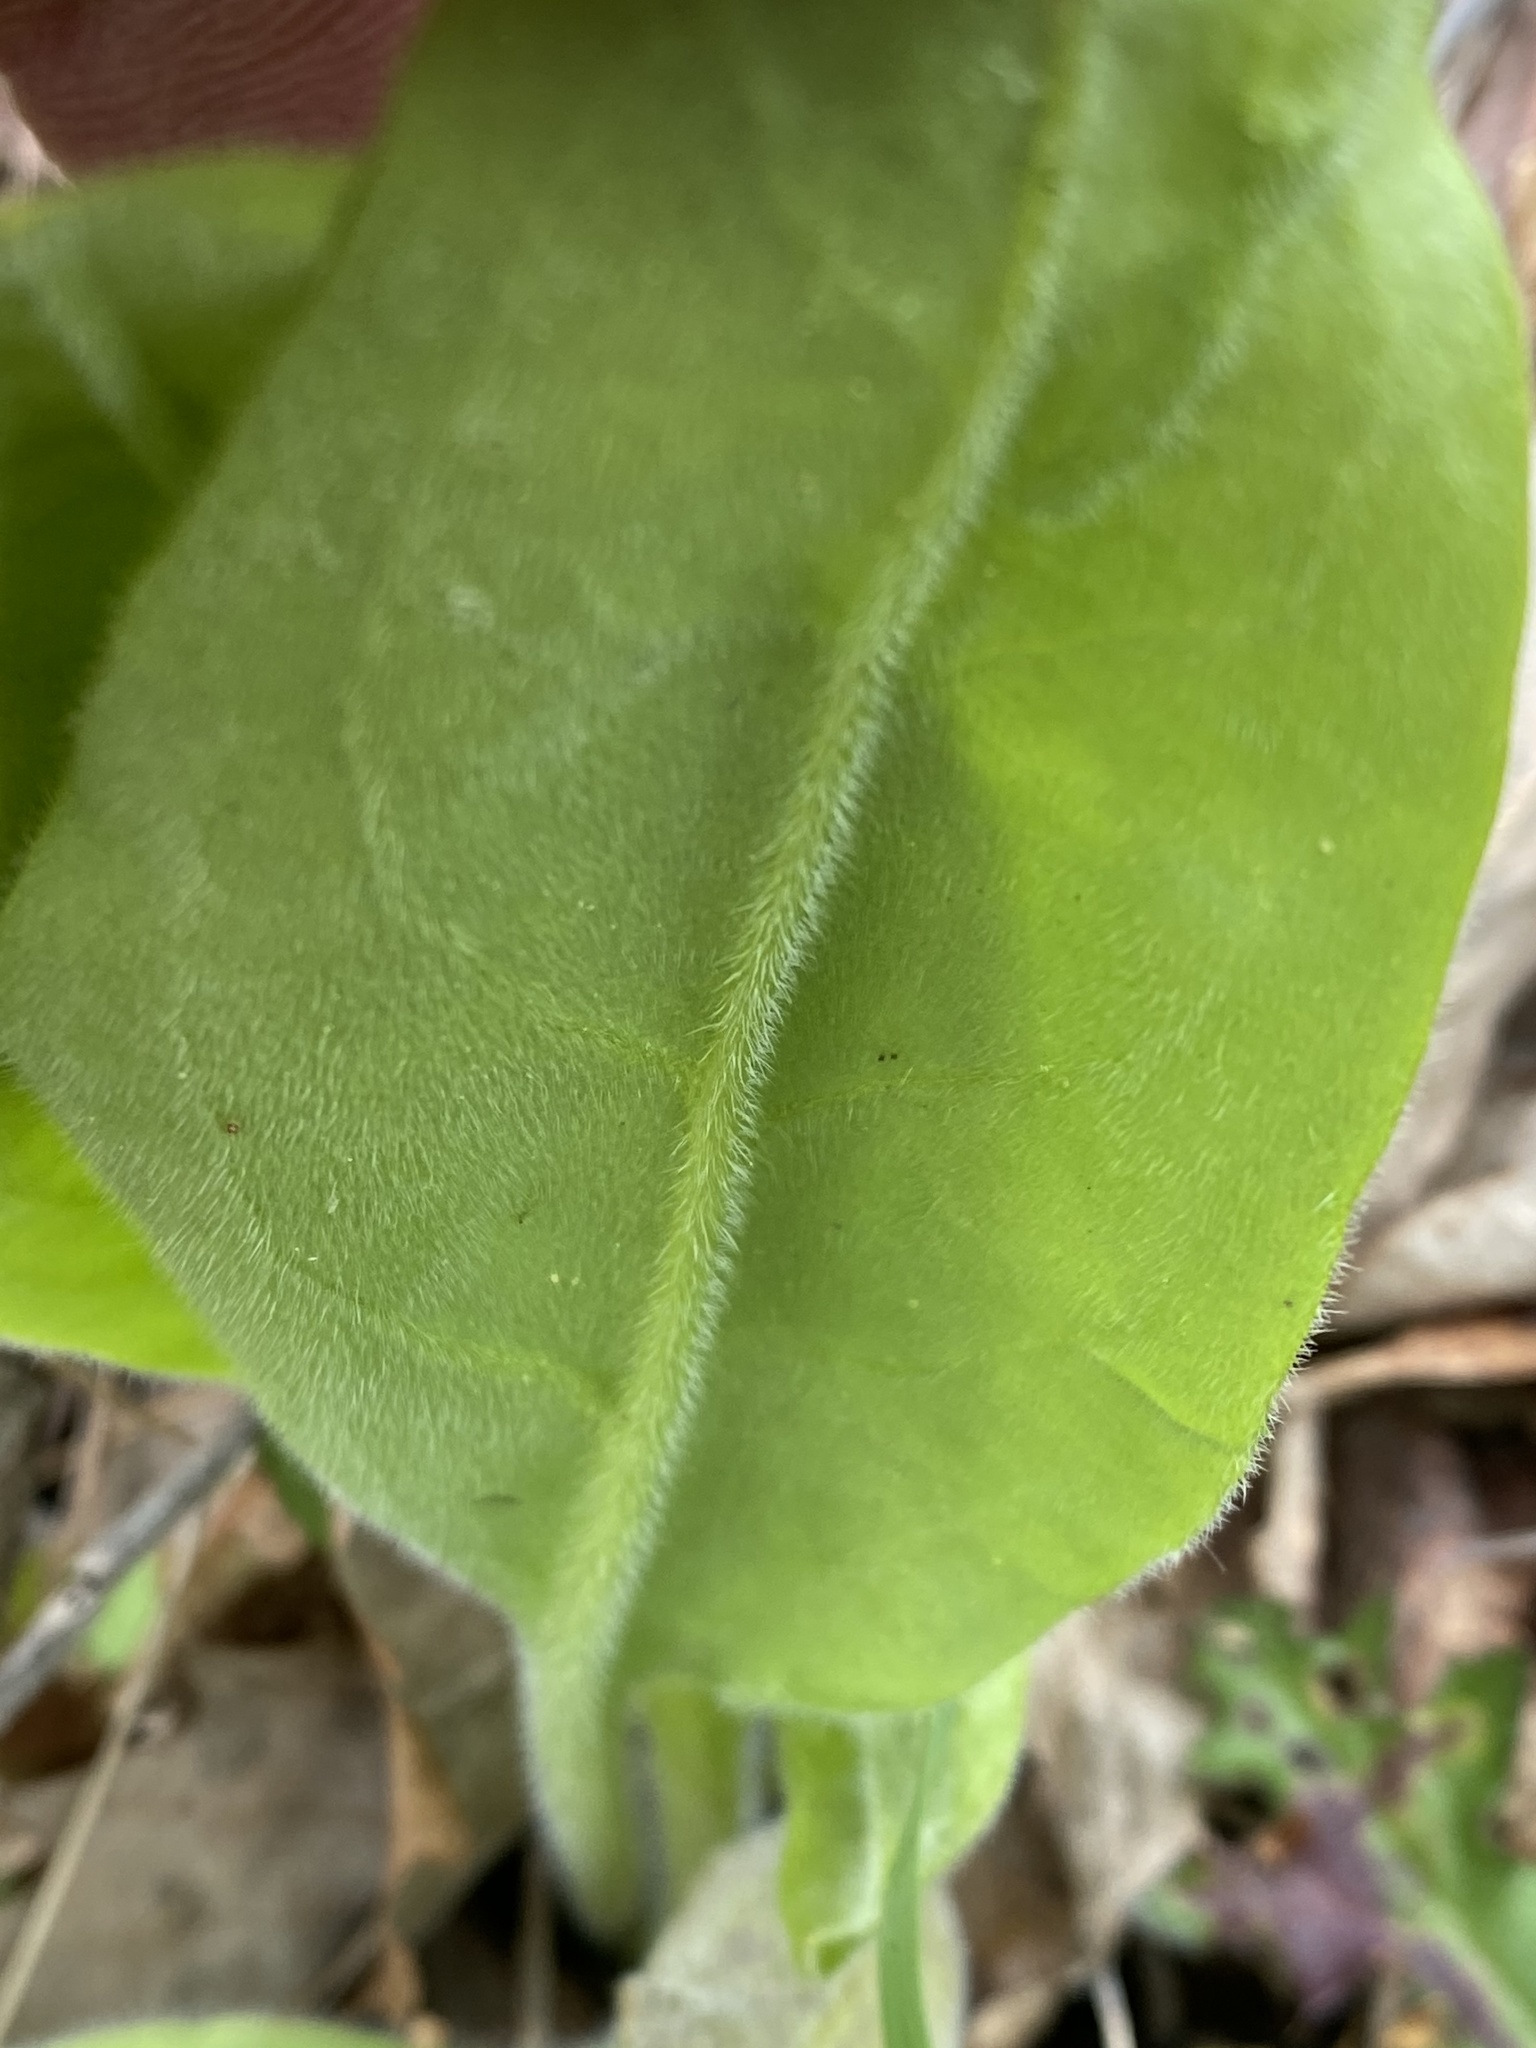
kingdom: Plantae
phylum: Tracheophyta
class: Magnoliopsida
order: Boraginales
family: Boraginaceae
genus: Andersonglossum
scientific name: Andersonglossum virginianum
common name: Wild comfrey
